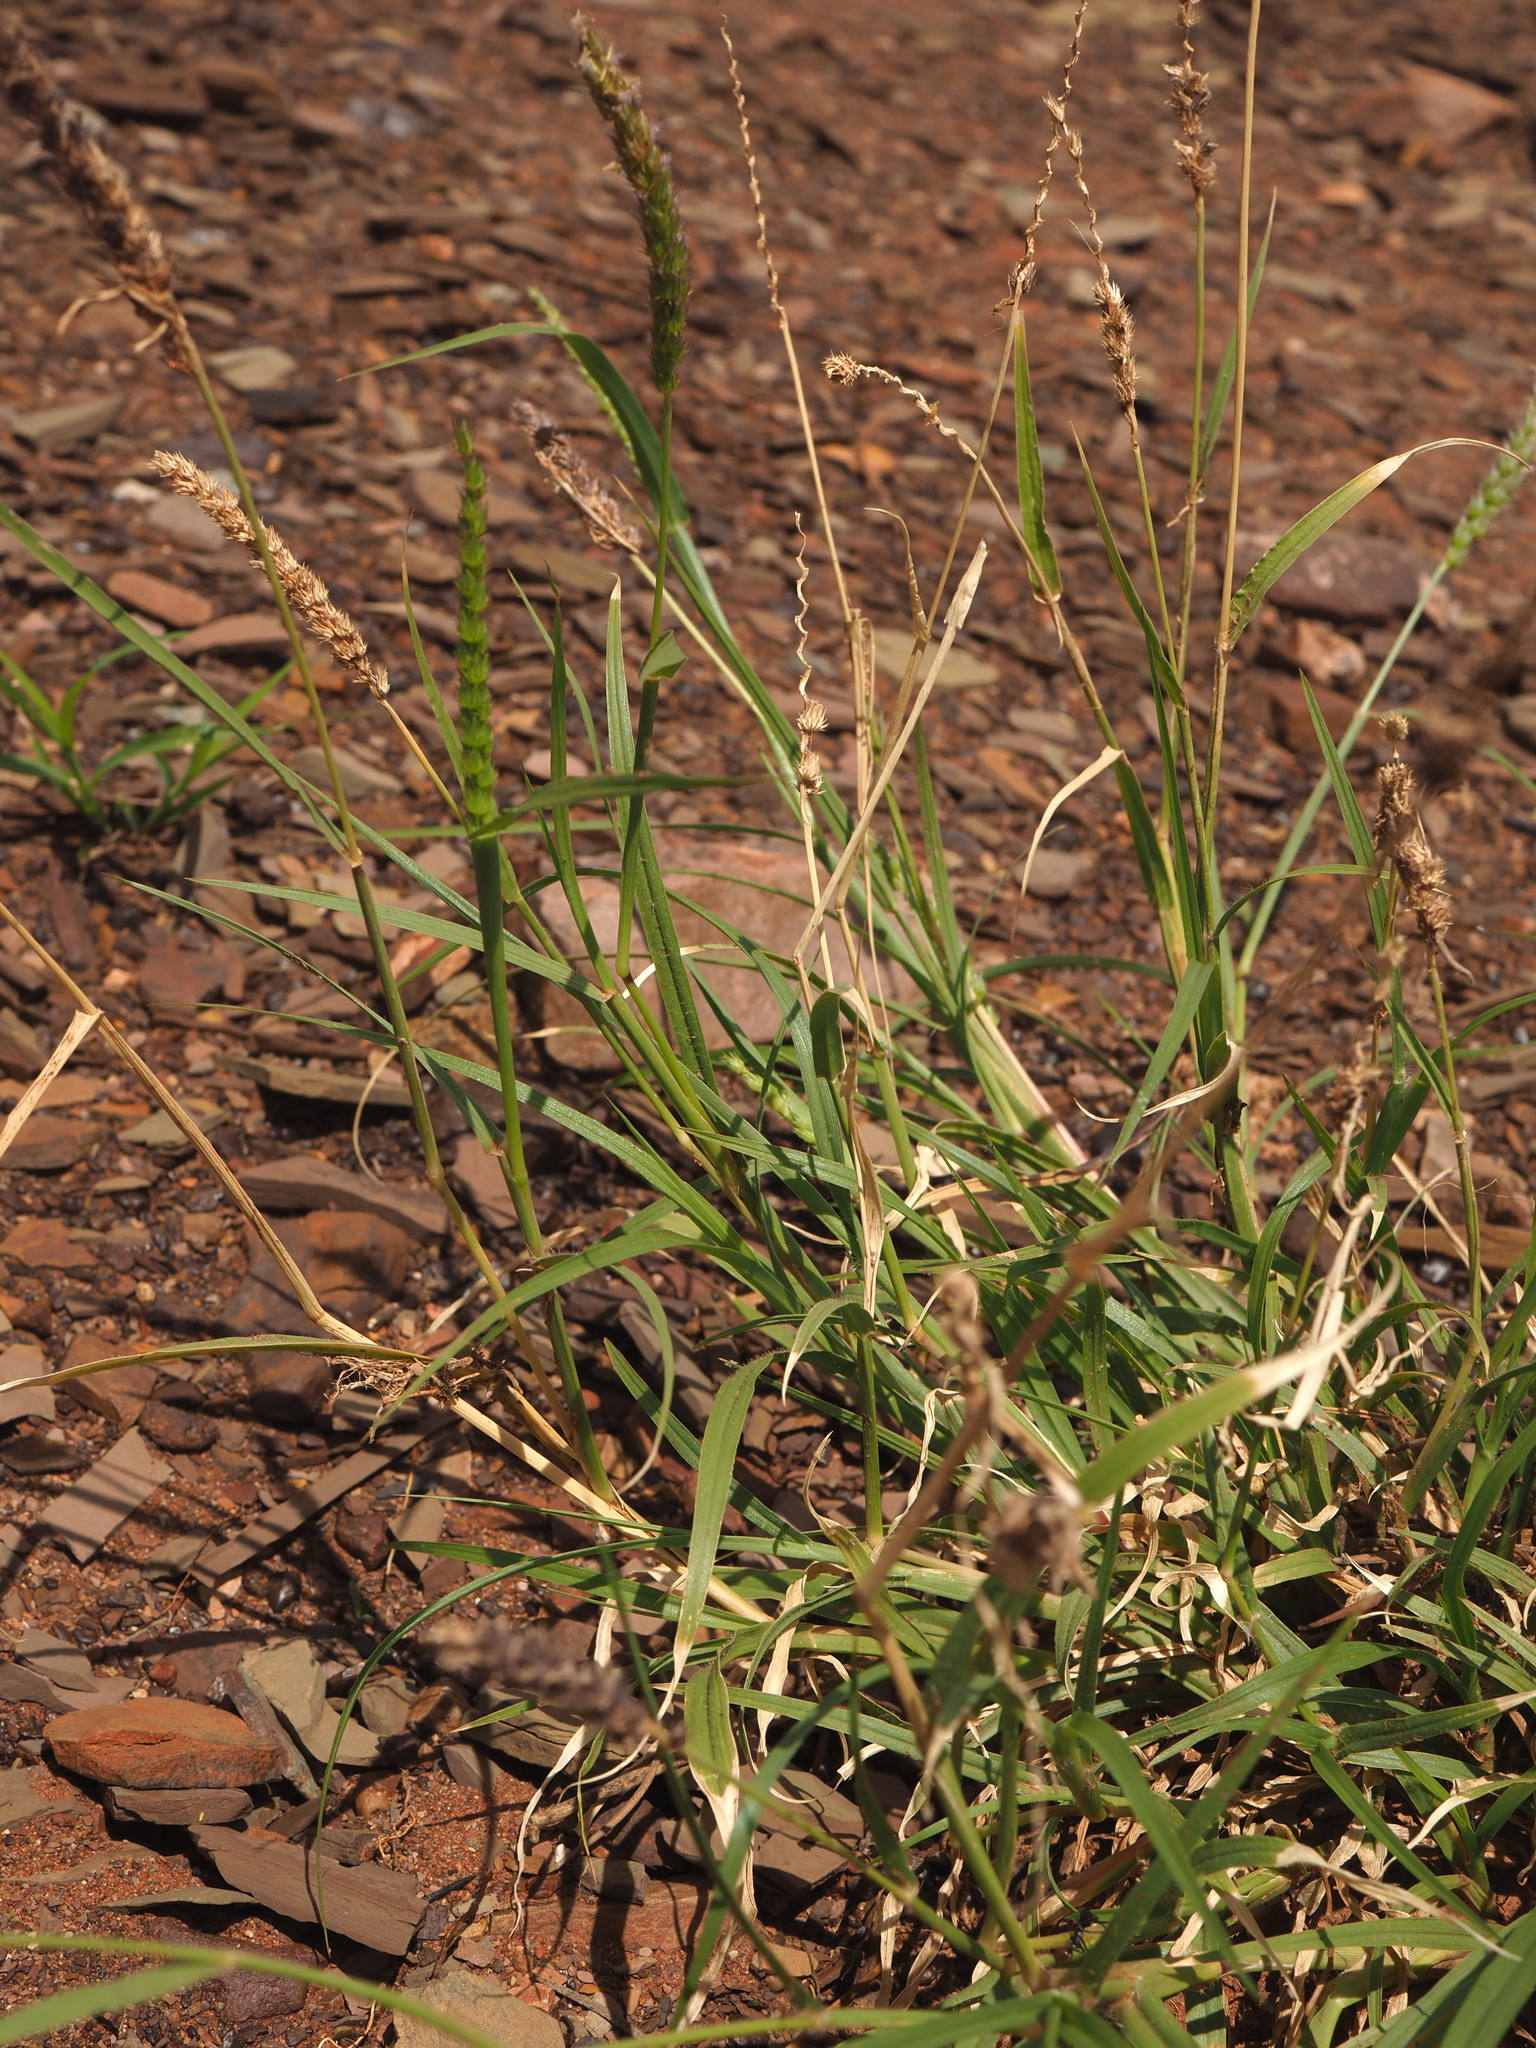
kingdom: Plantae
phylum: Tracheophyta
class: Liliopsida
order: Poales
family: Poaceae
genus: Cenchrus
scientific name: Cenchrus setigerus
